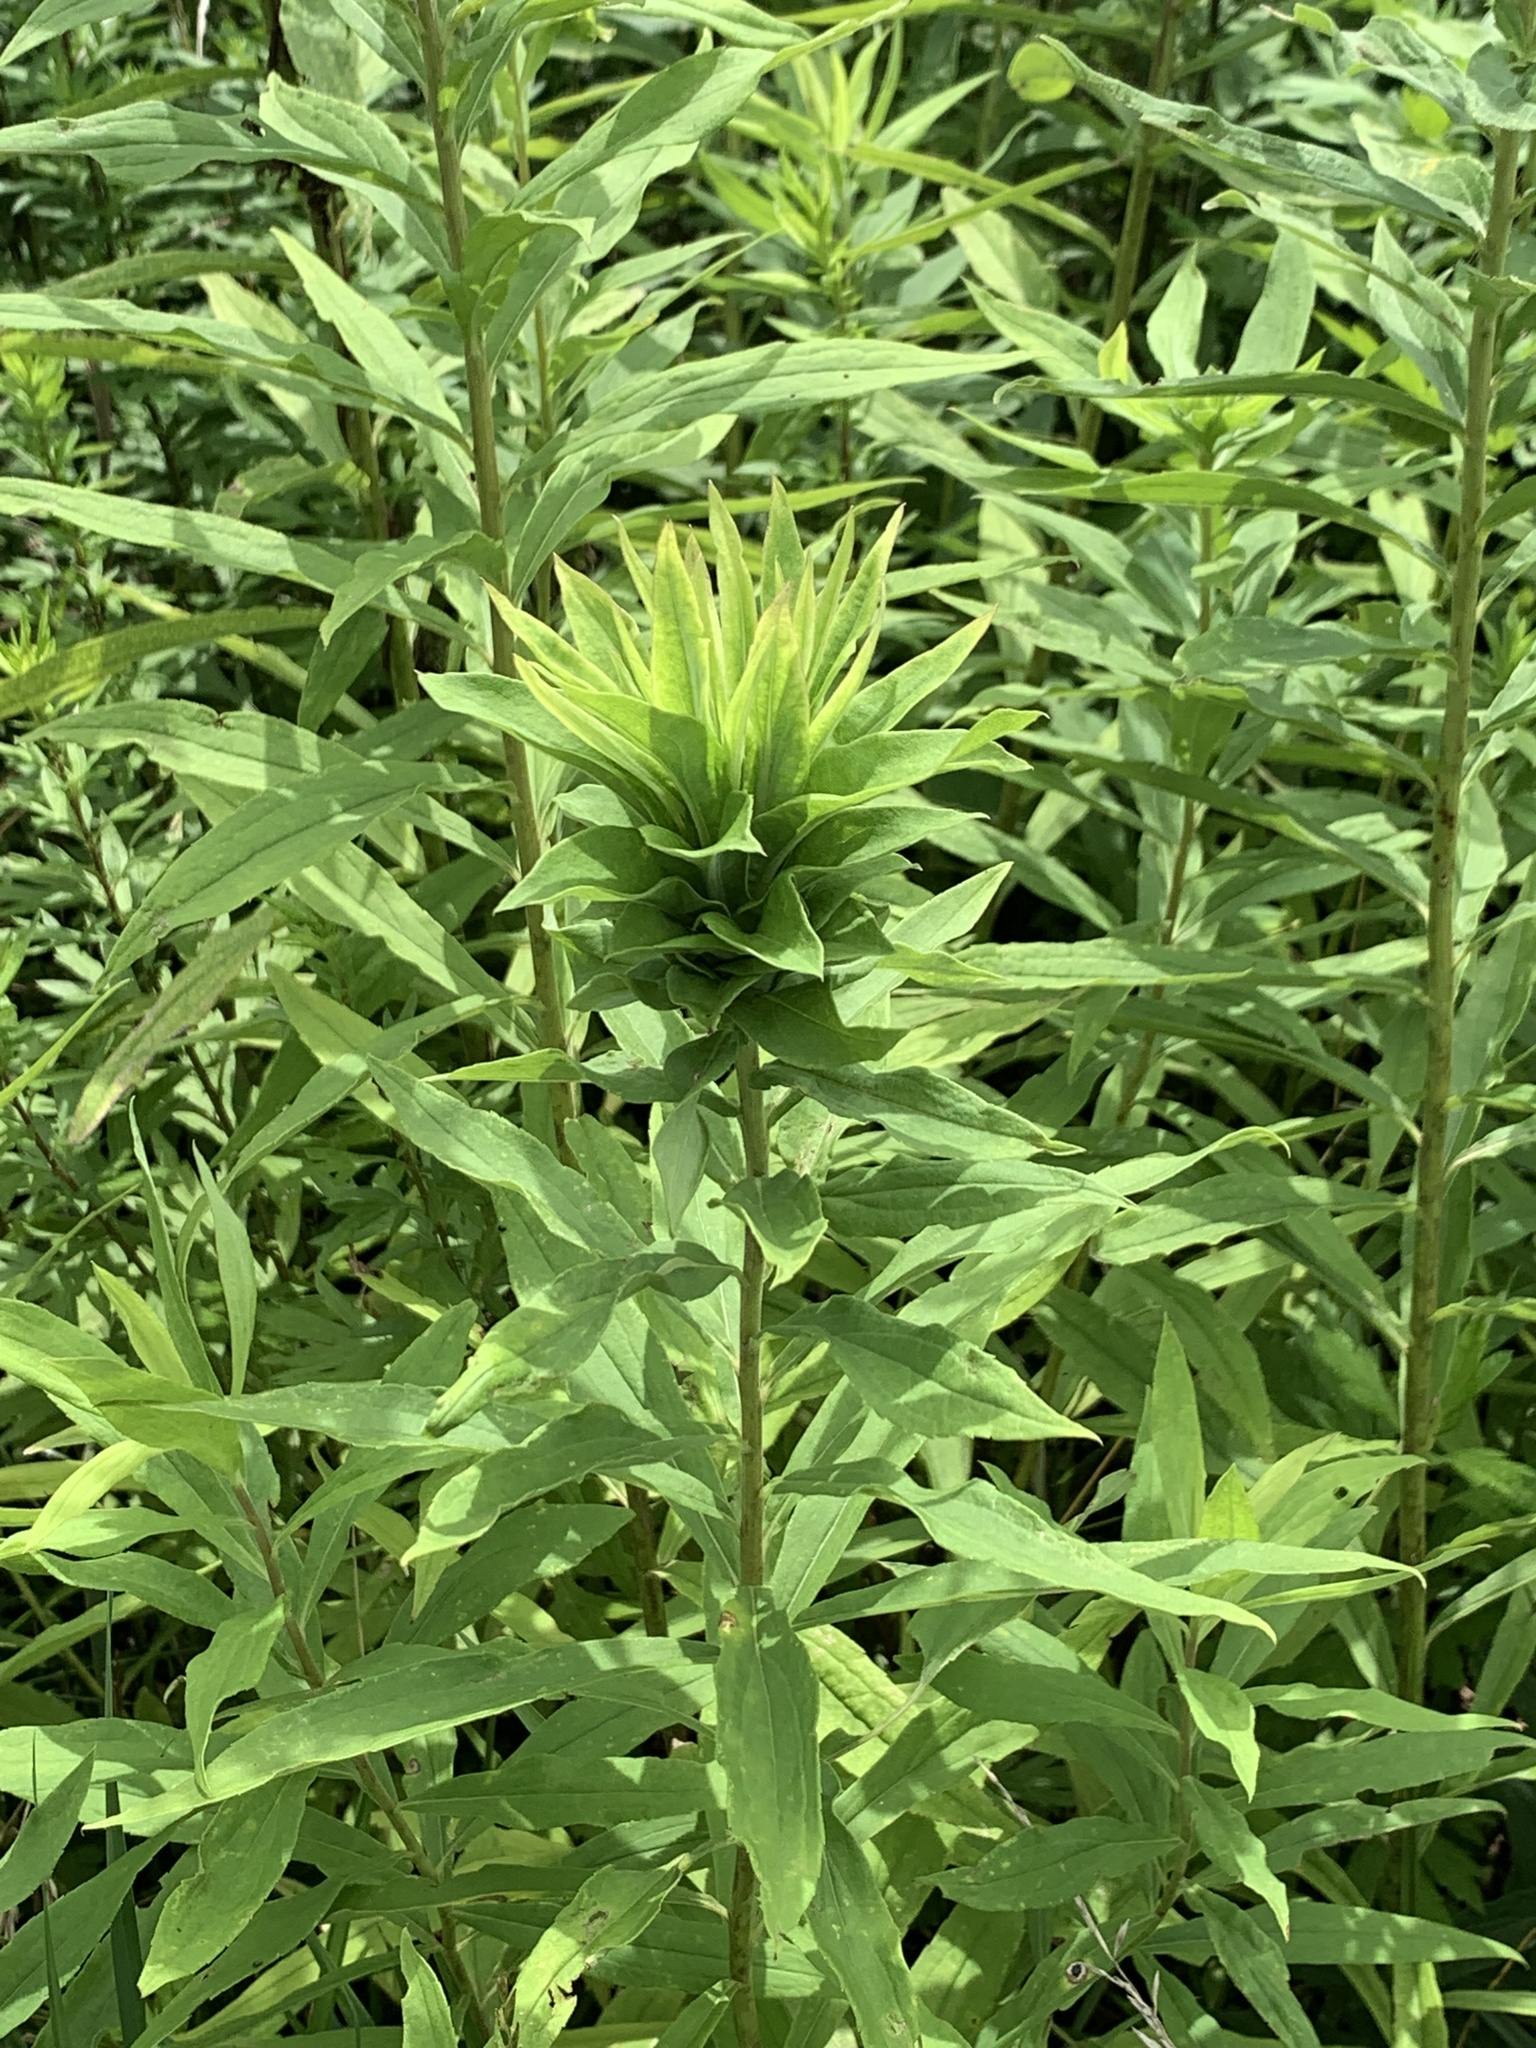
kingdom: Animalia
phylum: Arthropoda
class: Insecta
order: Diptera
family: Cecidomyiidae
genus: Rhopalomyia
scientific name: Rhopalomyia solidaginis
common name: Goldenrod bunch gall midge
